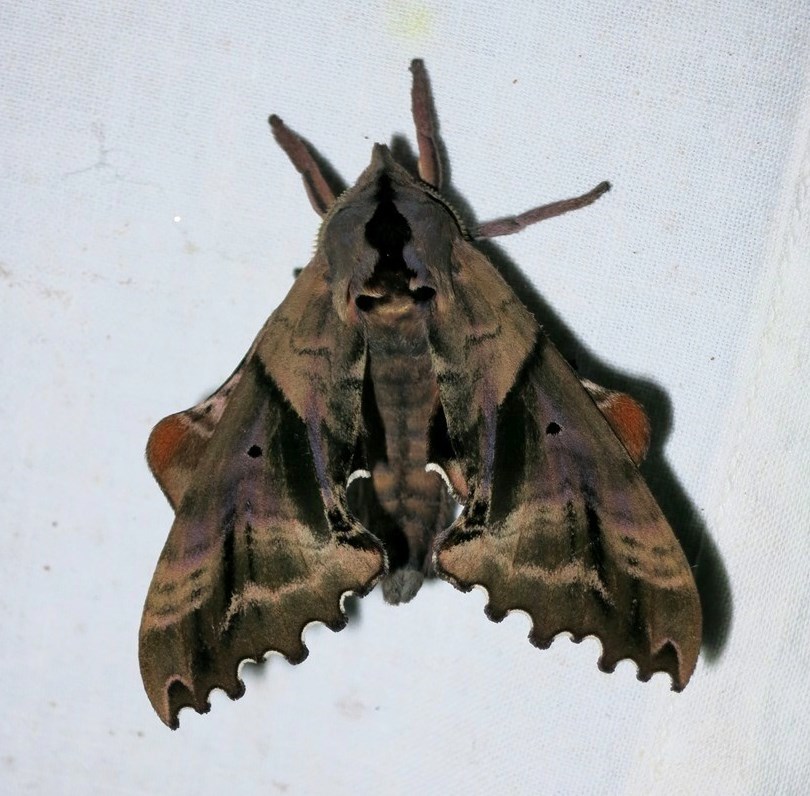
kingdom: Animalia
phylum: Arthropoda
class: Insecta
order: Lepidoptera
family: Sphingidae
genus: Paonias
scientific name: Paonias excaecata
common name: Blind-eyed sphinx
